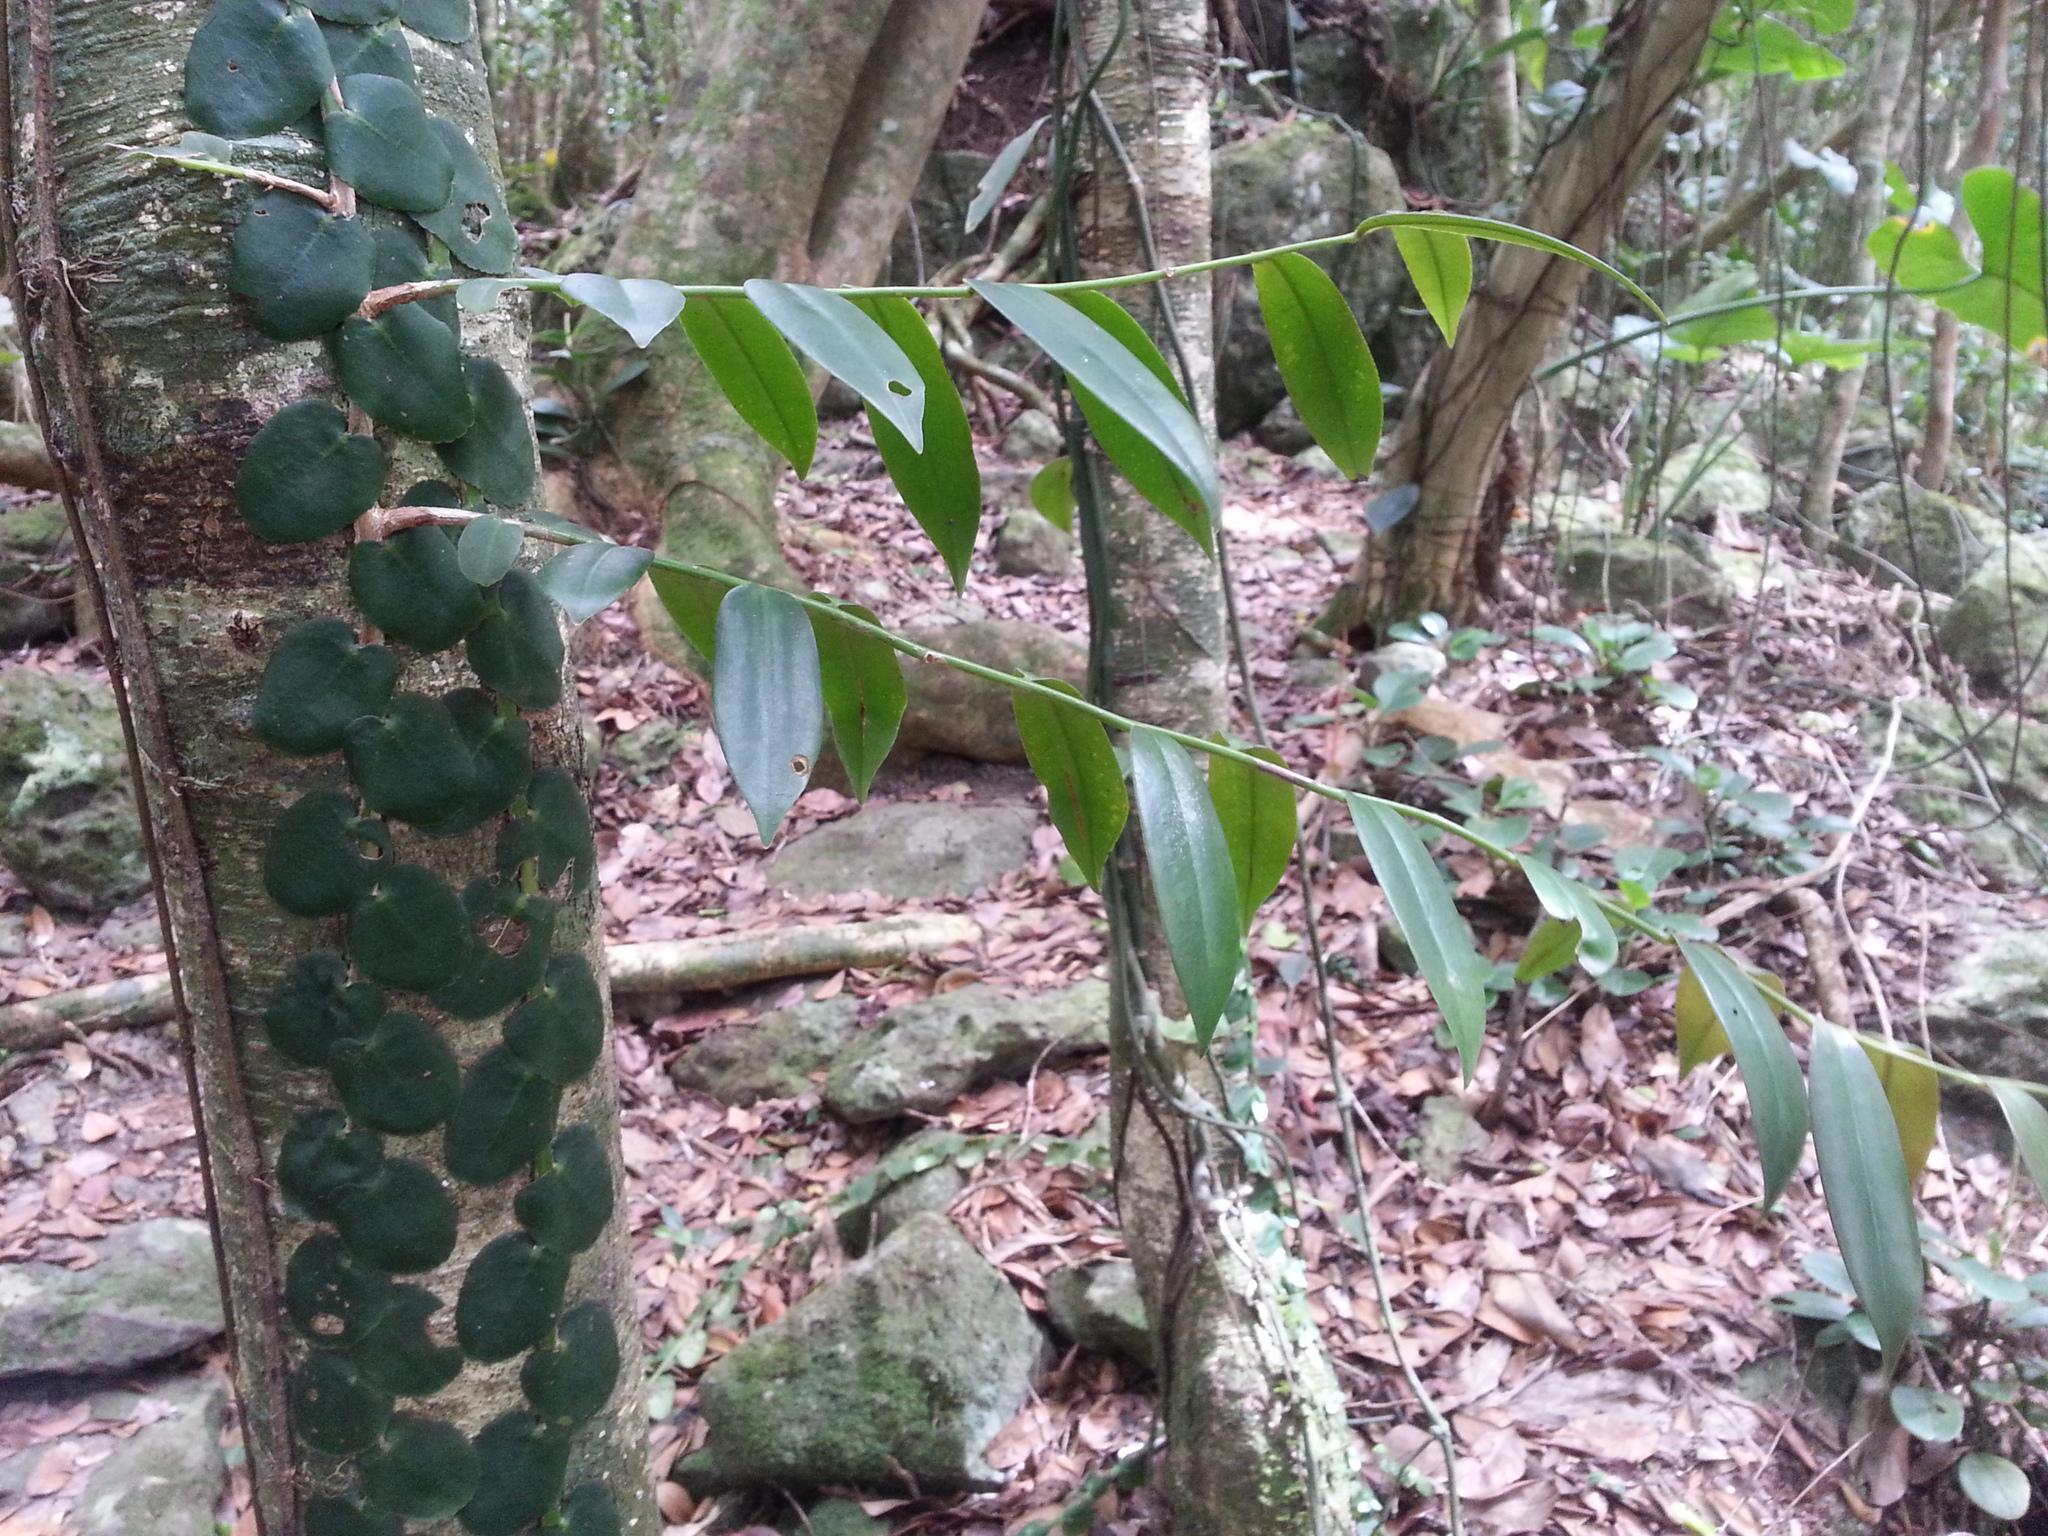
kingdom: Plantae
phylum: Tracheophyta
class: Magnoliopsida
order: Ericales
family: Marcgraviaceae
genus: Marcgravia
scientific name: Marcgravia rectiflora
